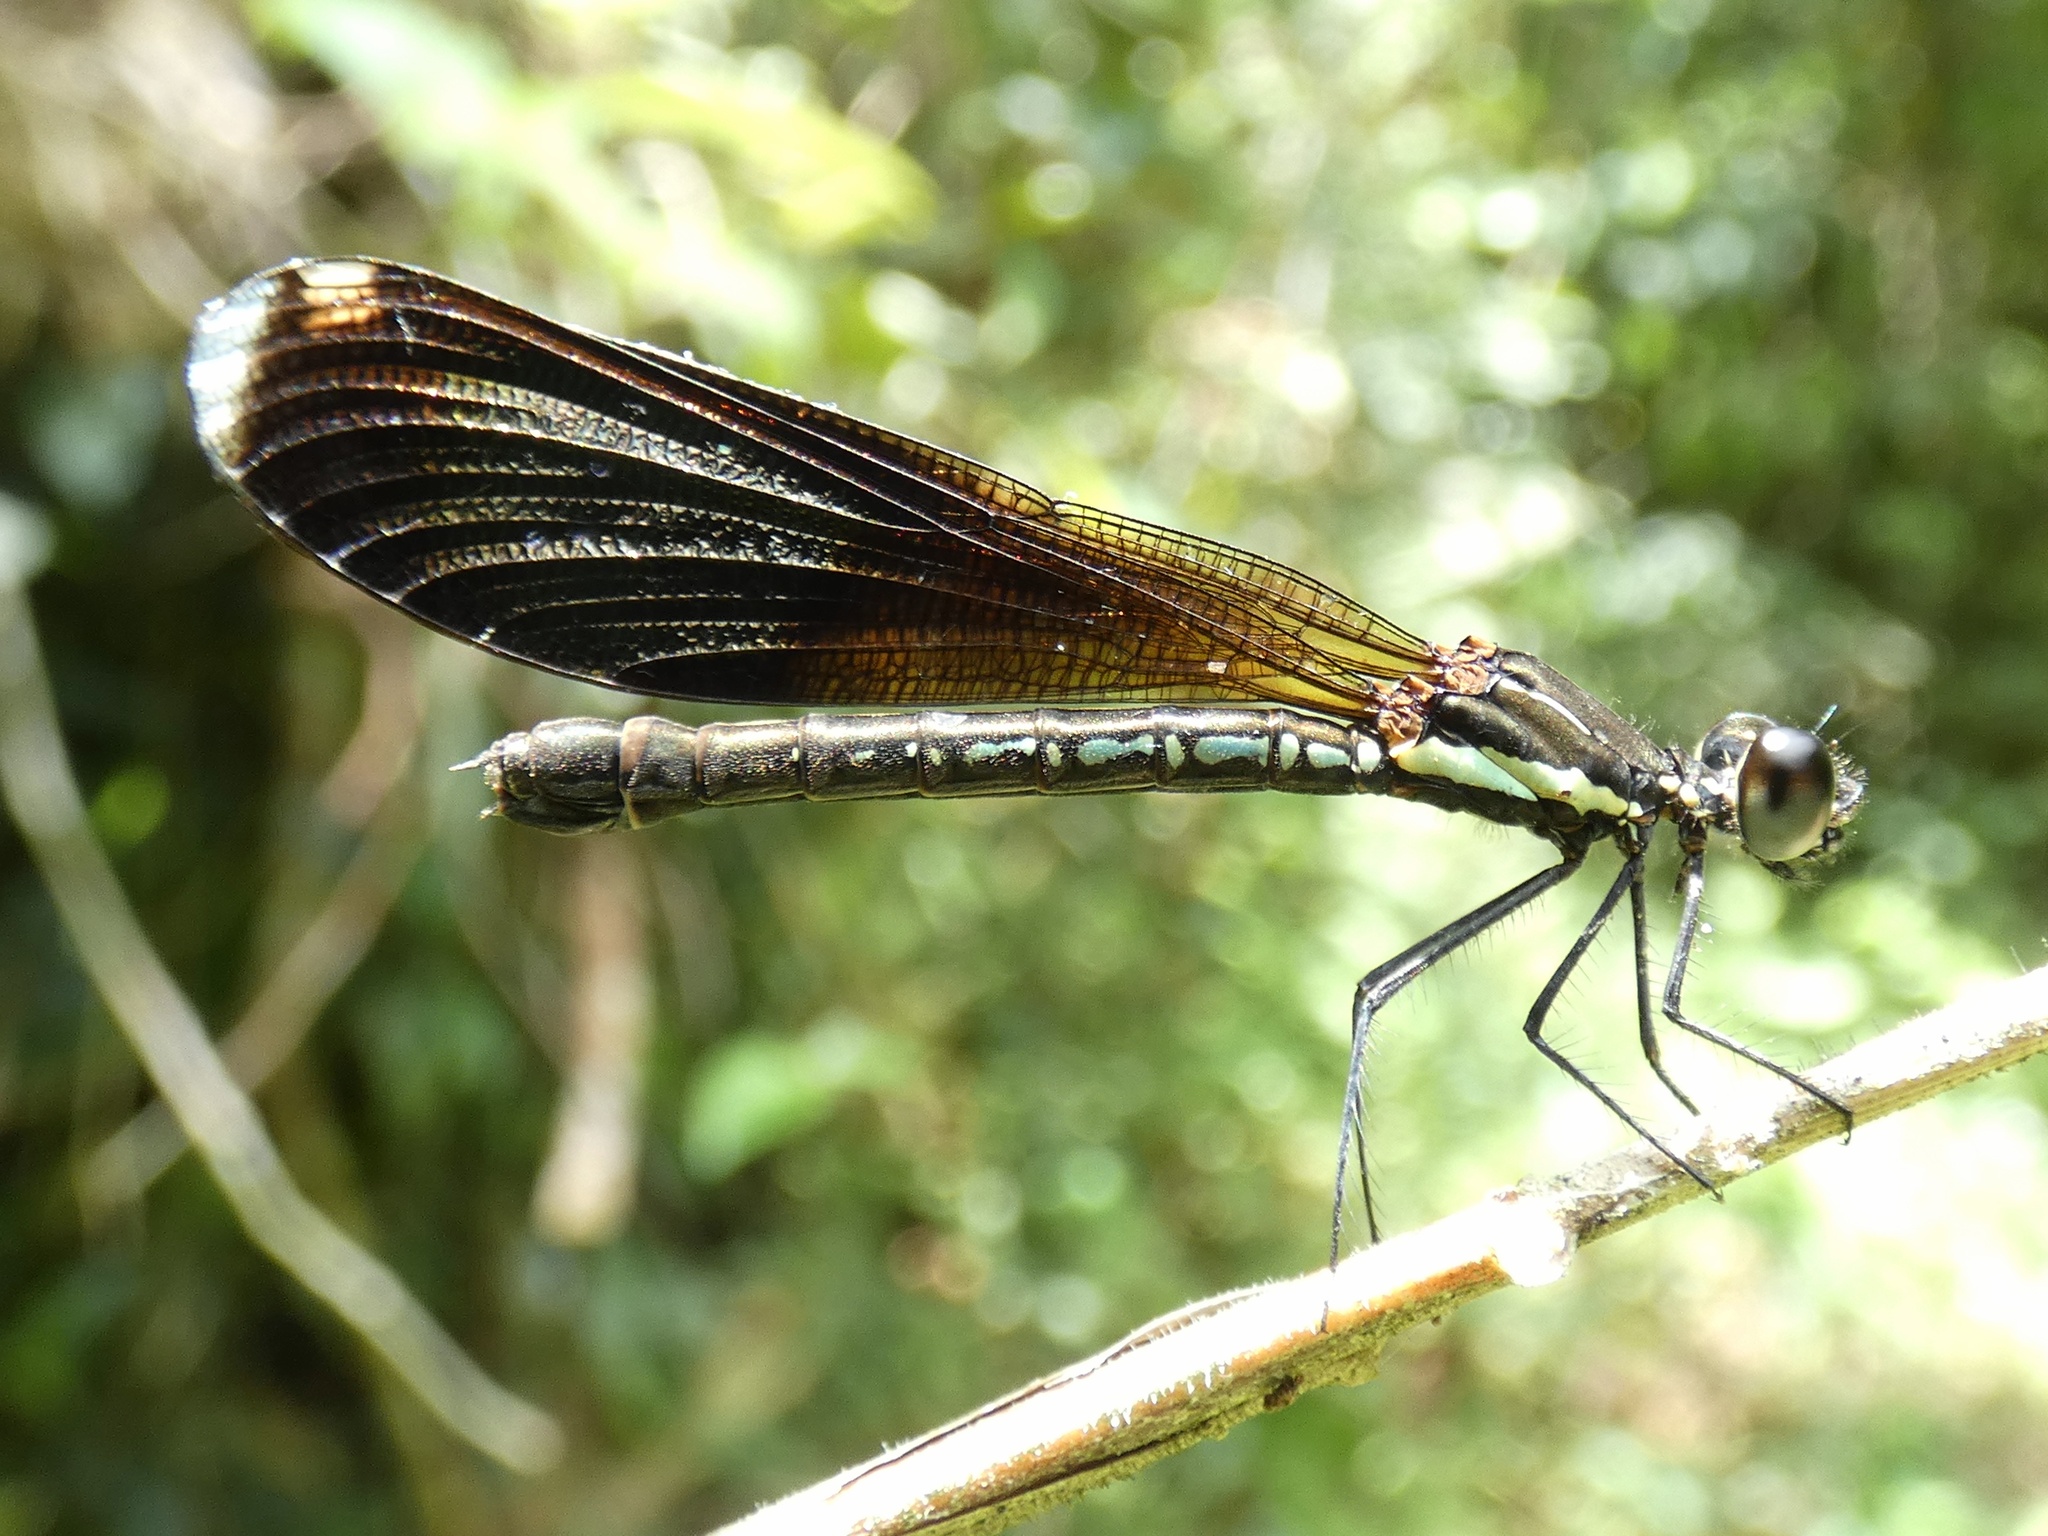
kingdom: Animalia
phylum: Arthropoda
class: Insecta
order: Odonata
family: Chlorocyphidae
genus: Rhinocypha
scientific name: Rhinocypha colorata
